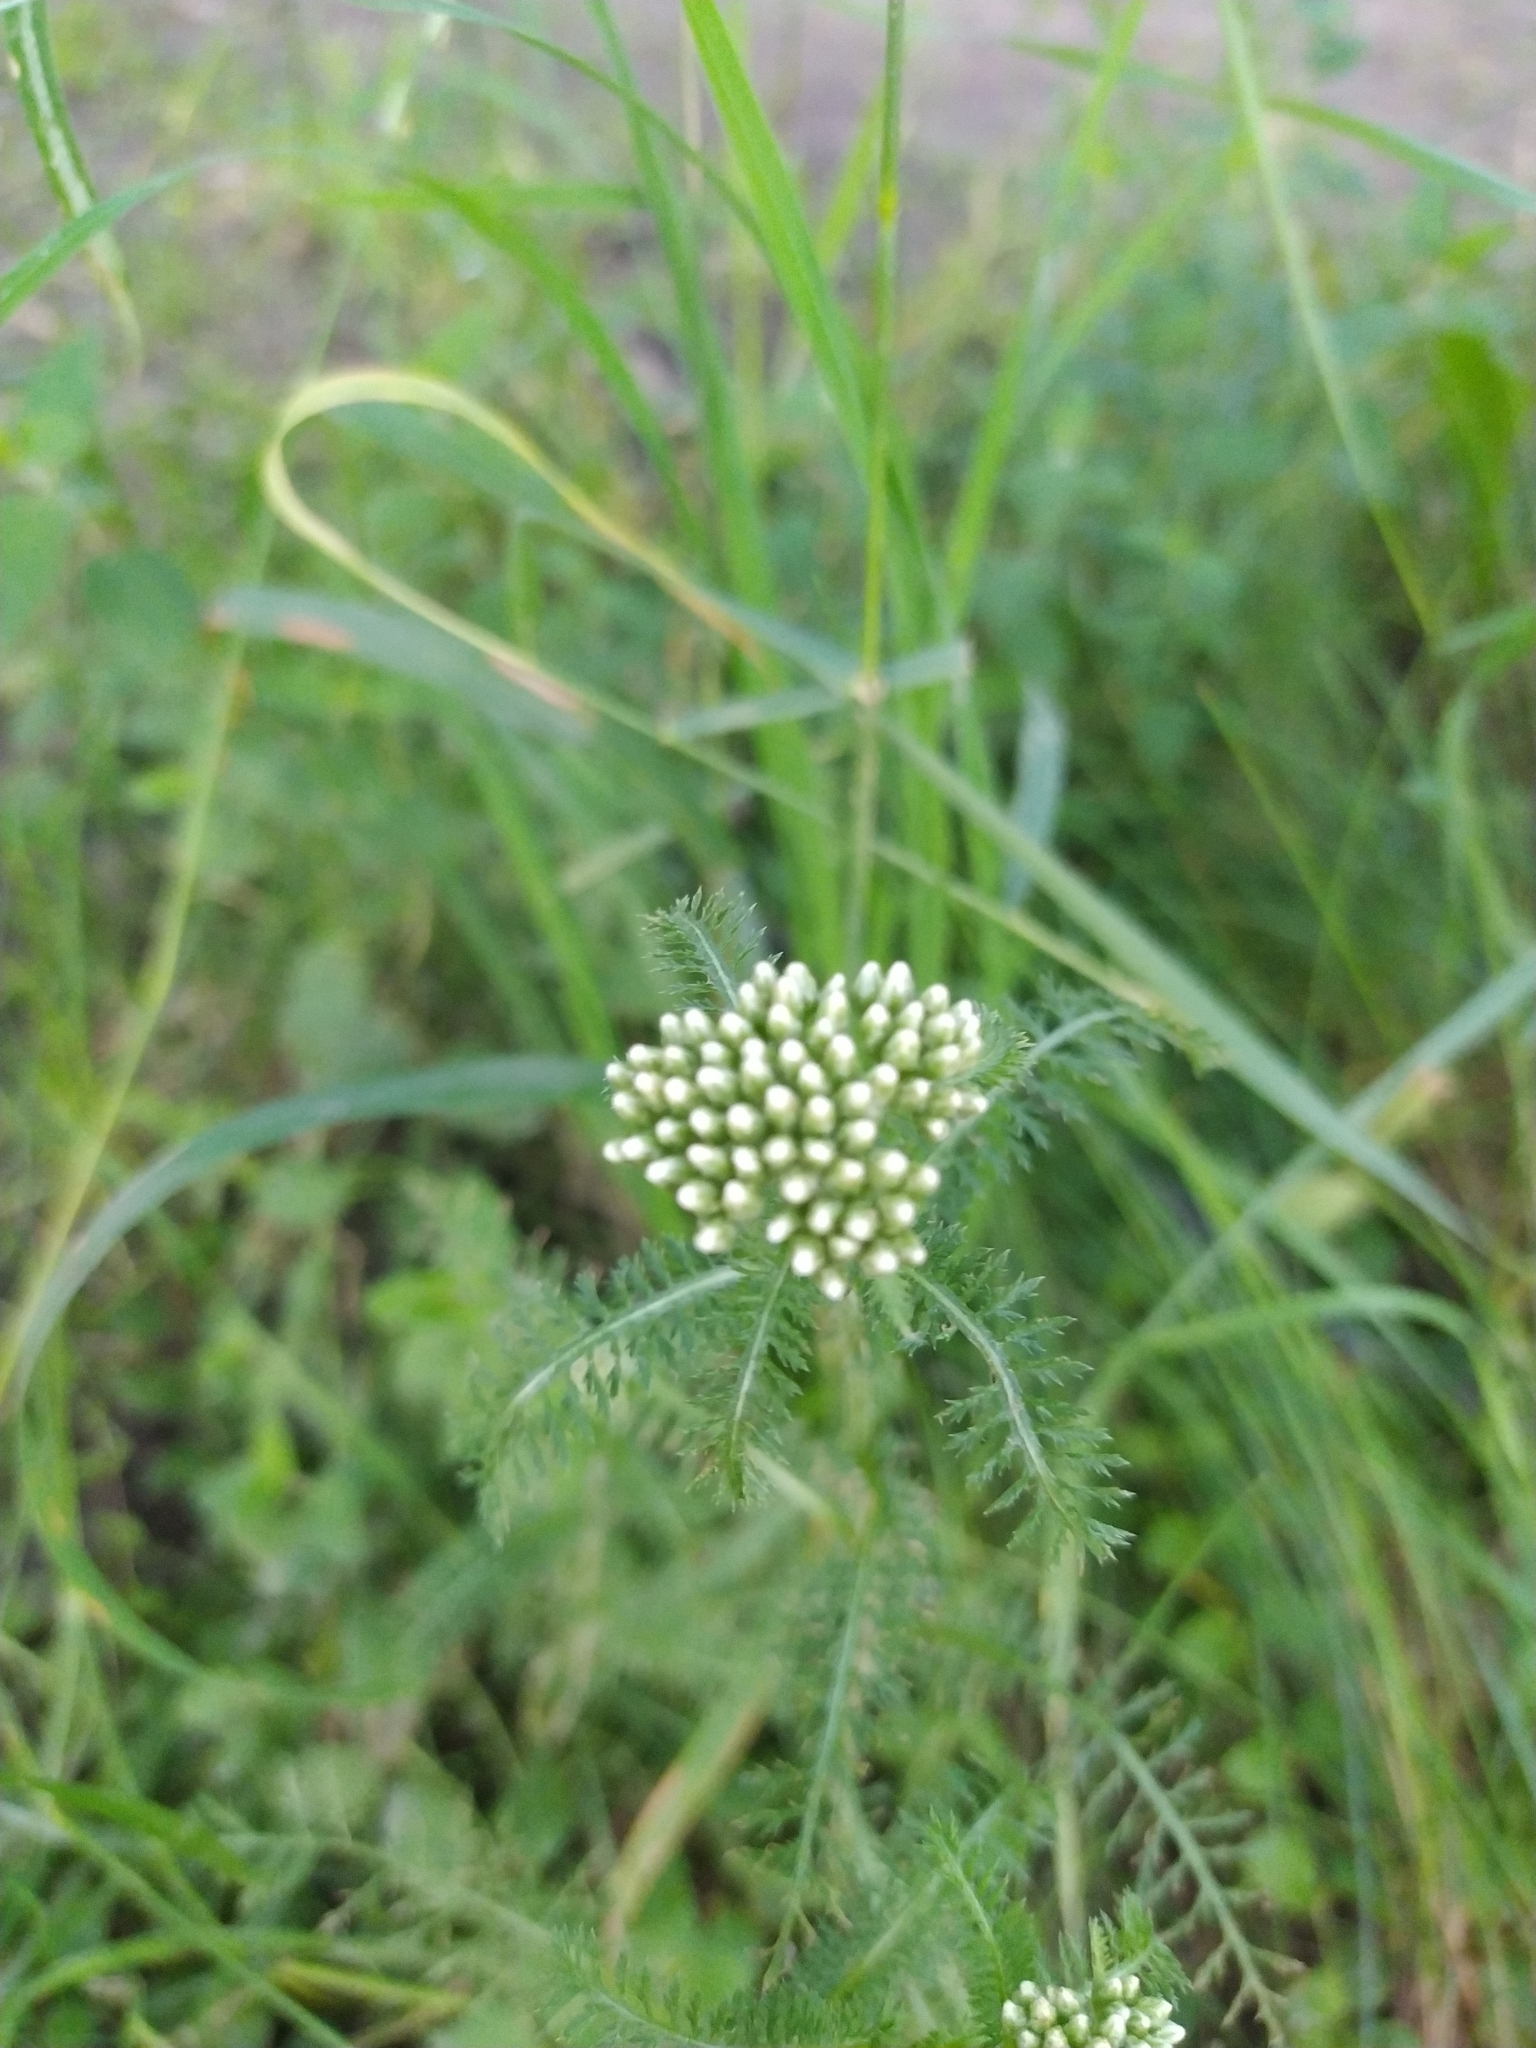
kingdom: Plantae
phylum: Tracheophyta
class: Magnoliopsida
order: Asterales
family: Asteraceae
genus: Achillea
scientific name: Achillea millefolium
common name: Yarrow
